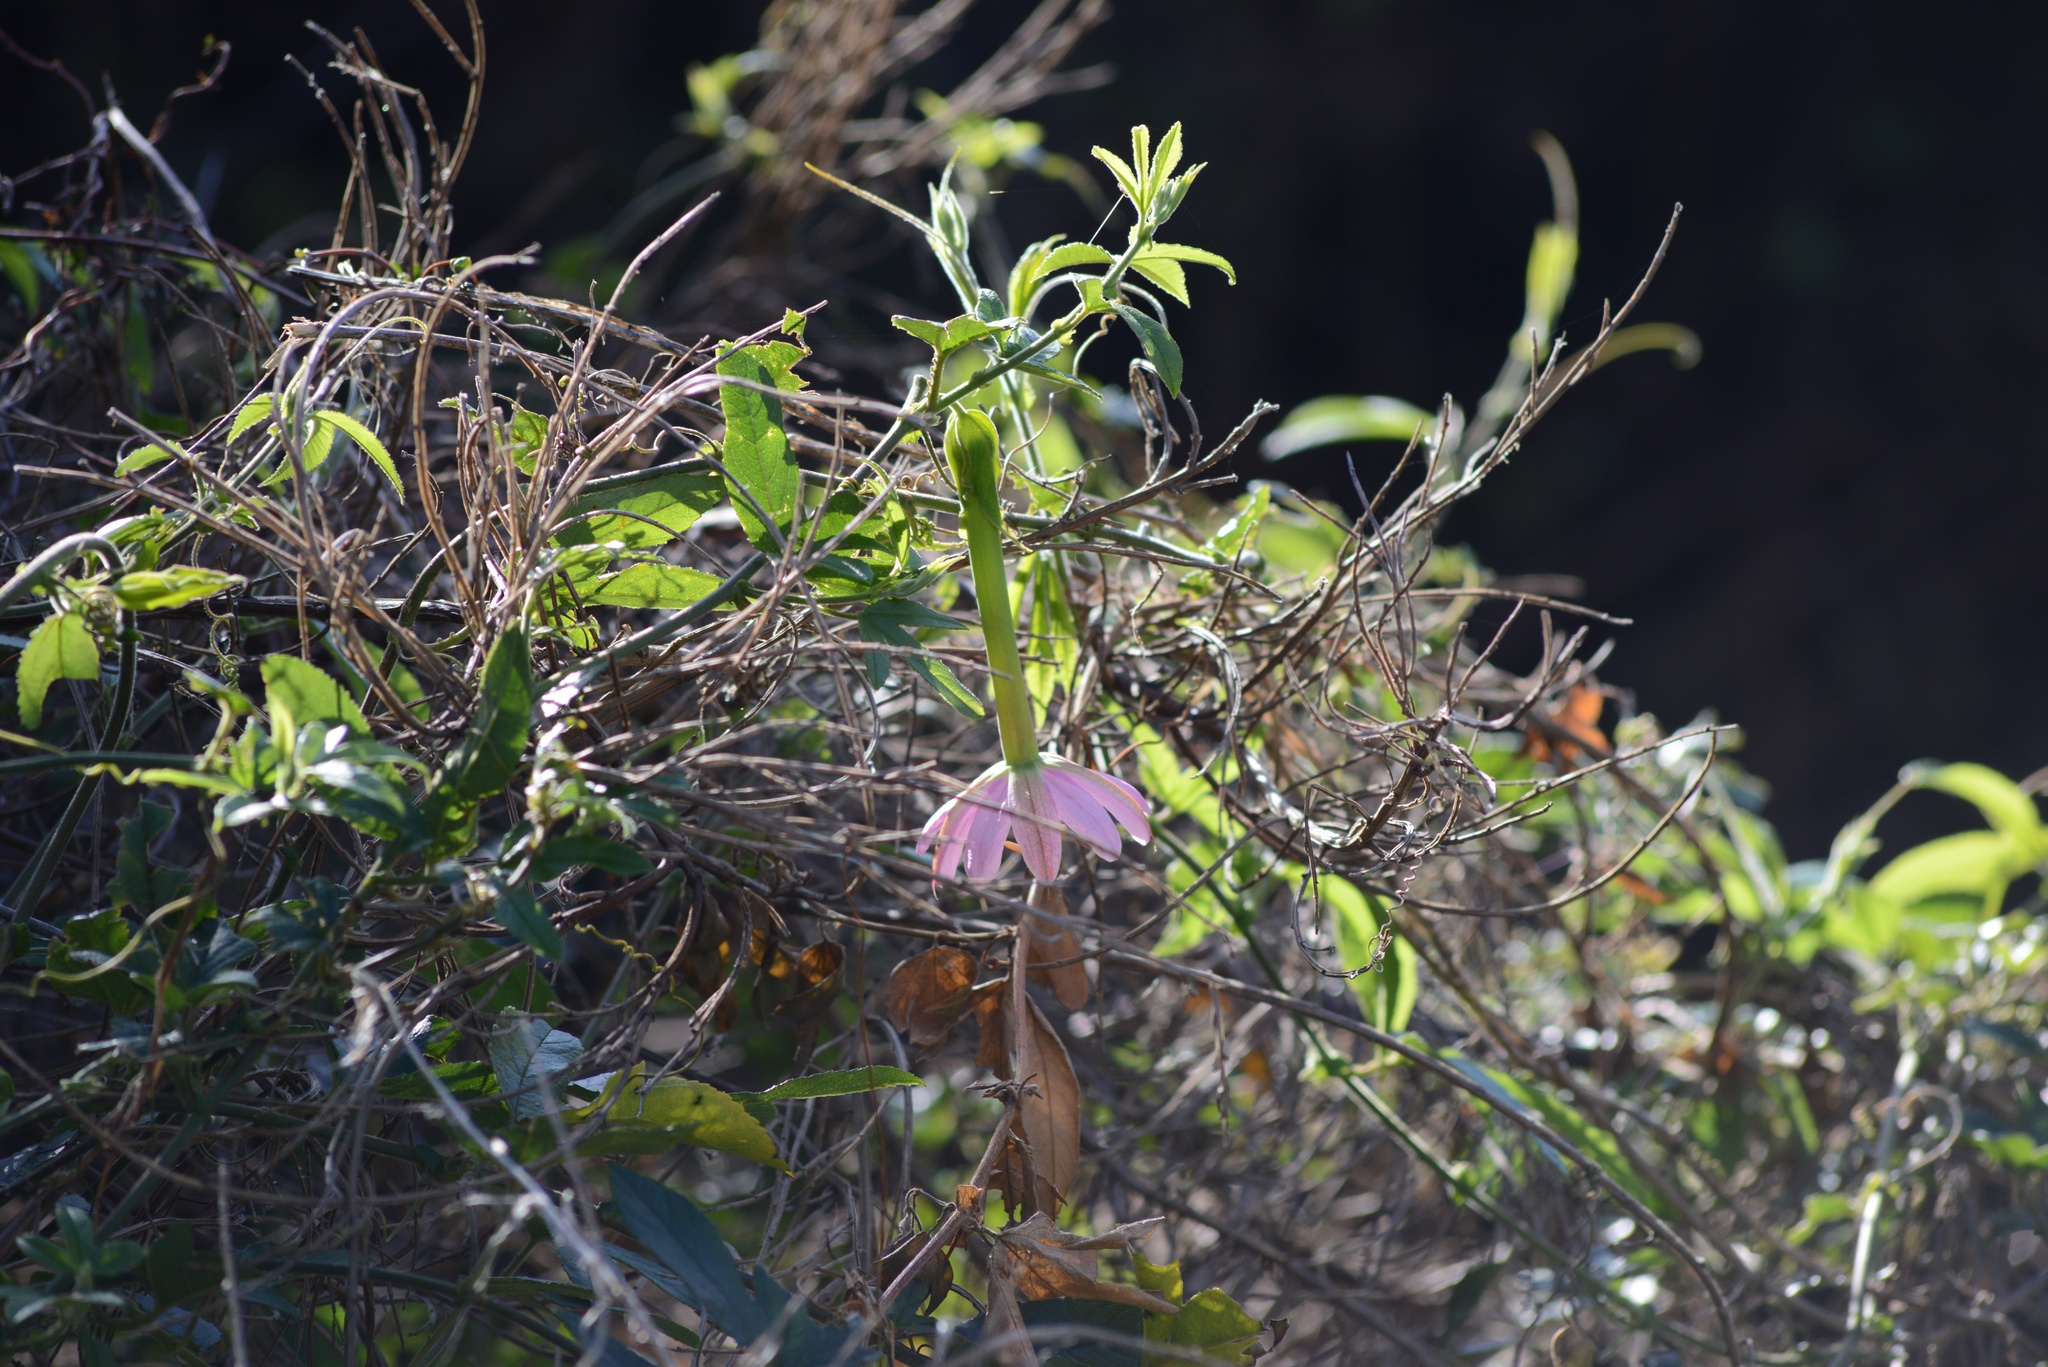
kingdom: Plantae
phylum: Tracheophyta
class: Magnoliopsida
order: Malpighiales
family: Passifloraceae
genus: Passiflora
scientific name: Passiflora tripartita
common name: Banana poka
